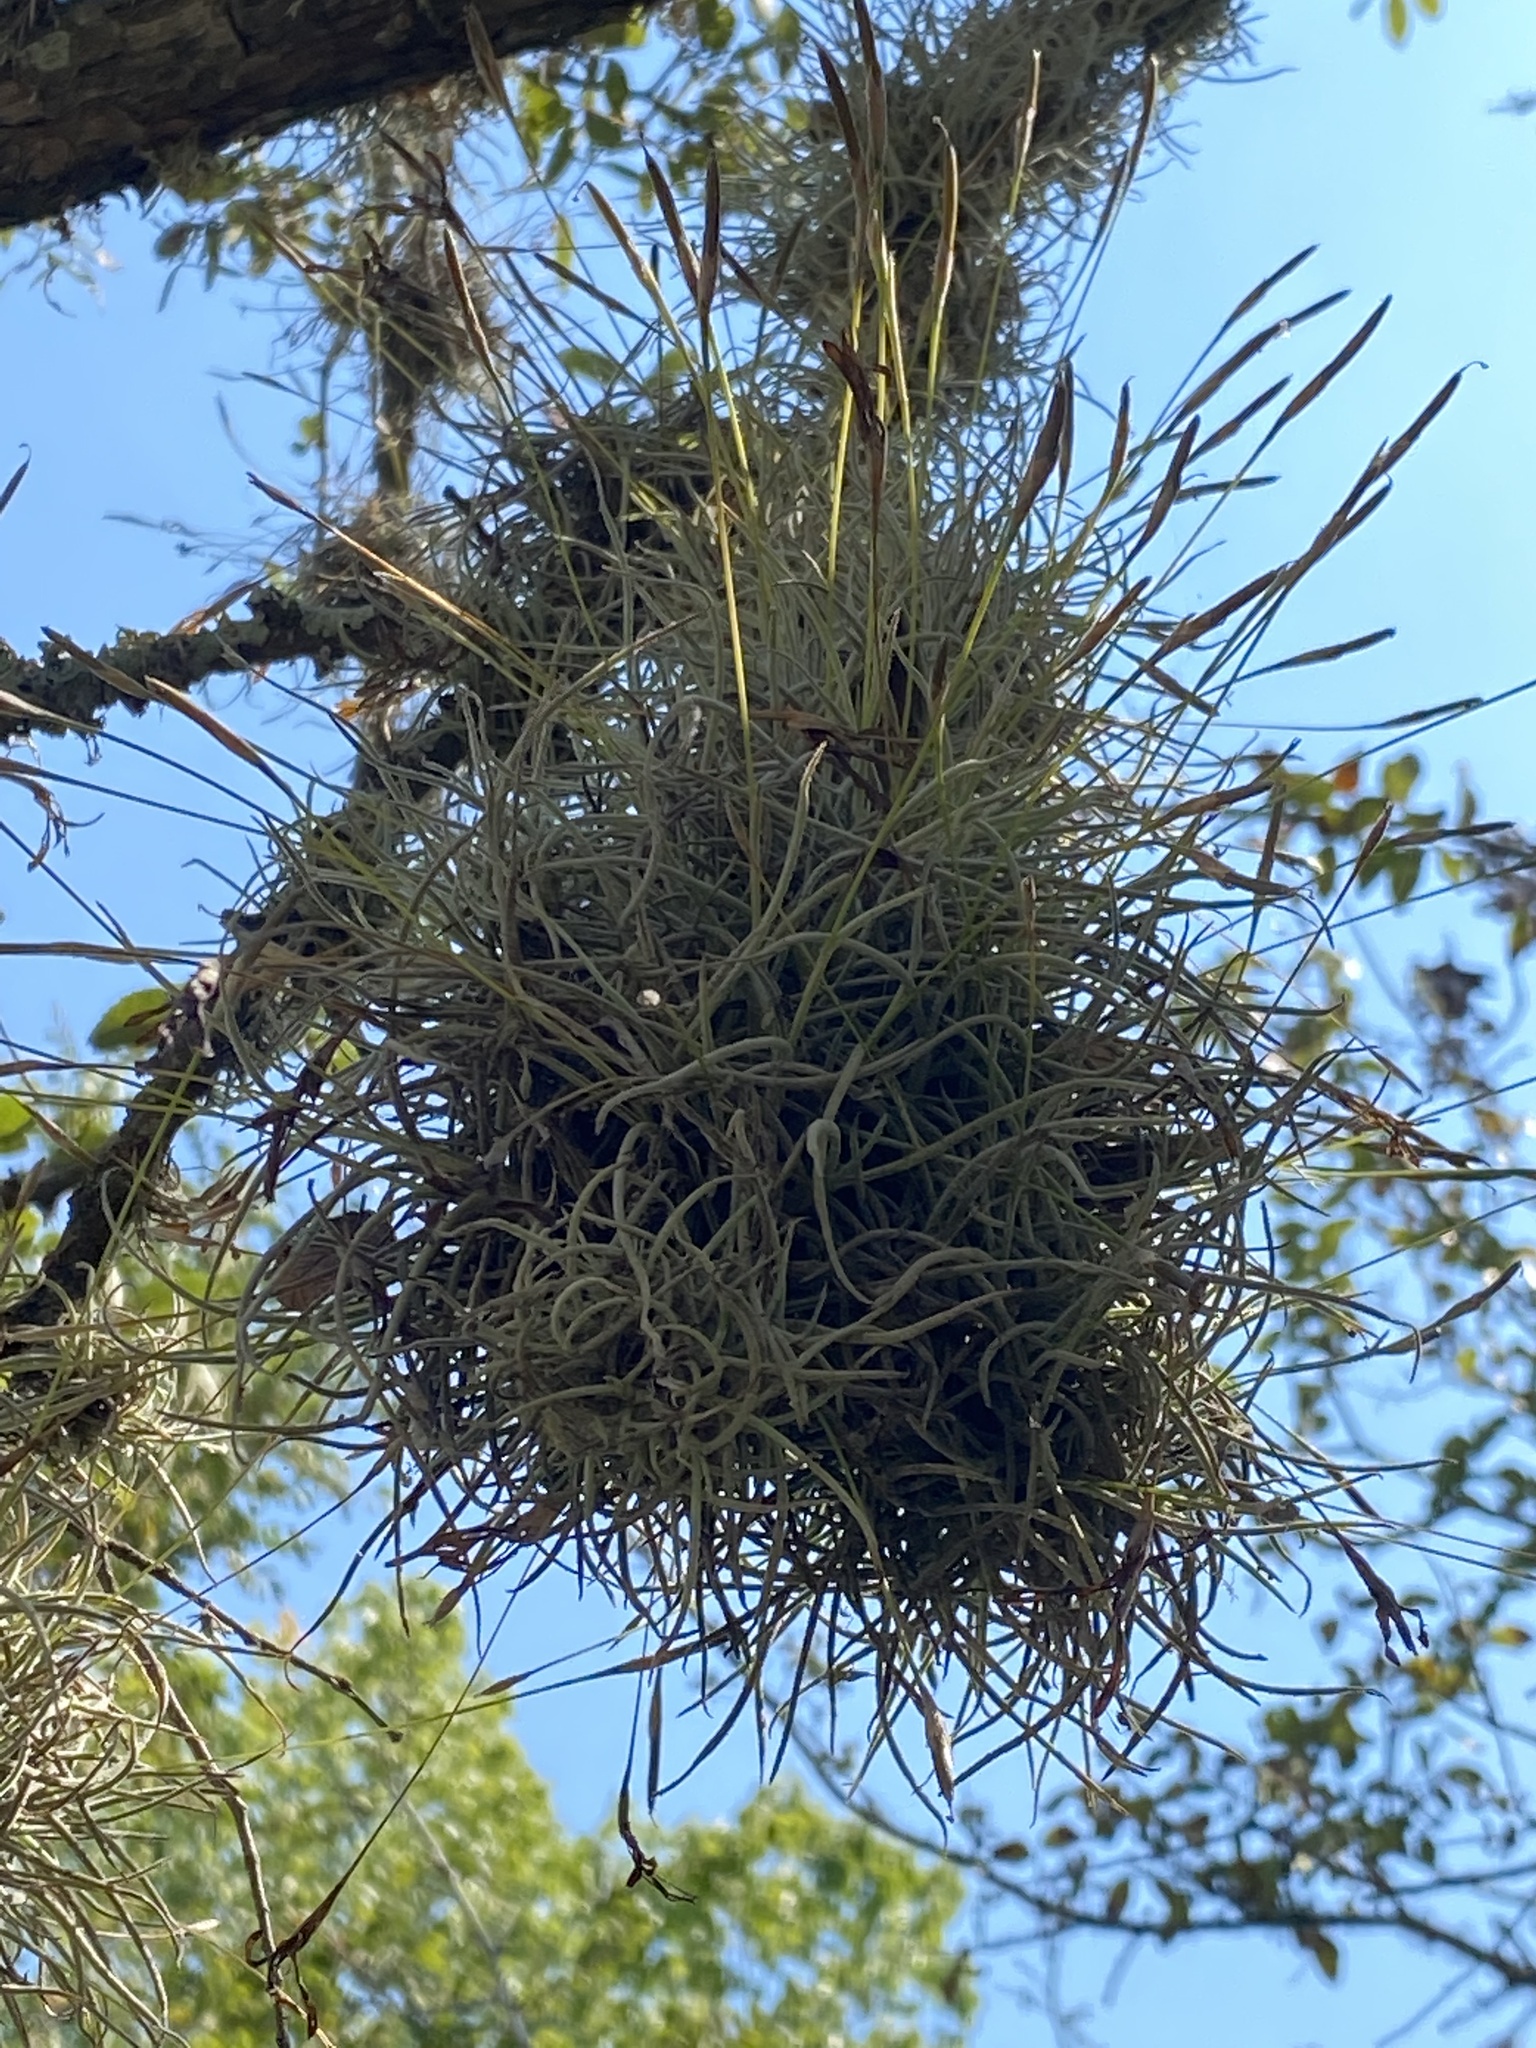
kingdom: Plantae
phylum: Tracheophyta
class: Liliopsida
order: Poales
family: Bromeliaceae
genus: Tillandsia
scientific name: Tillandsia recurvata
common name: Small ballmoss
